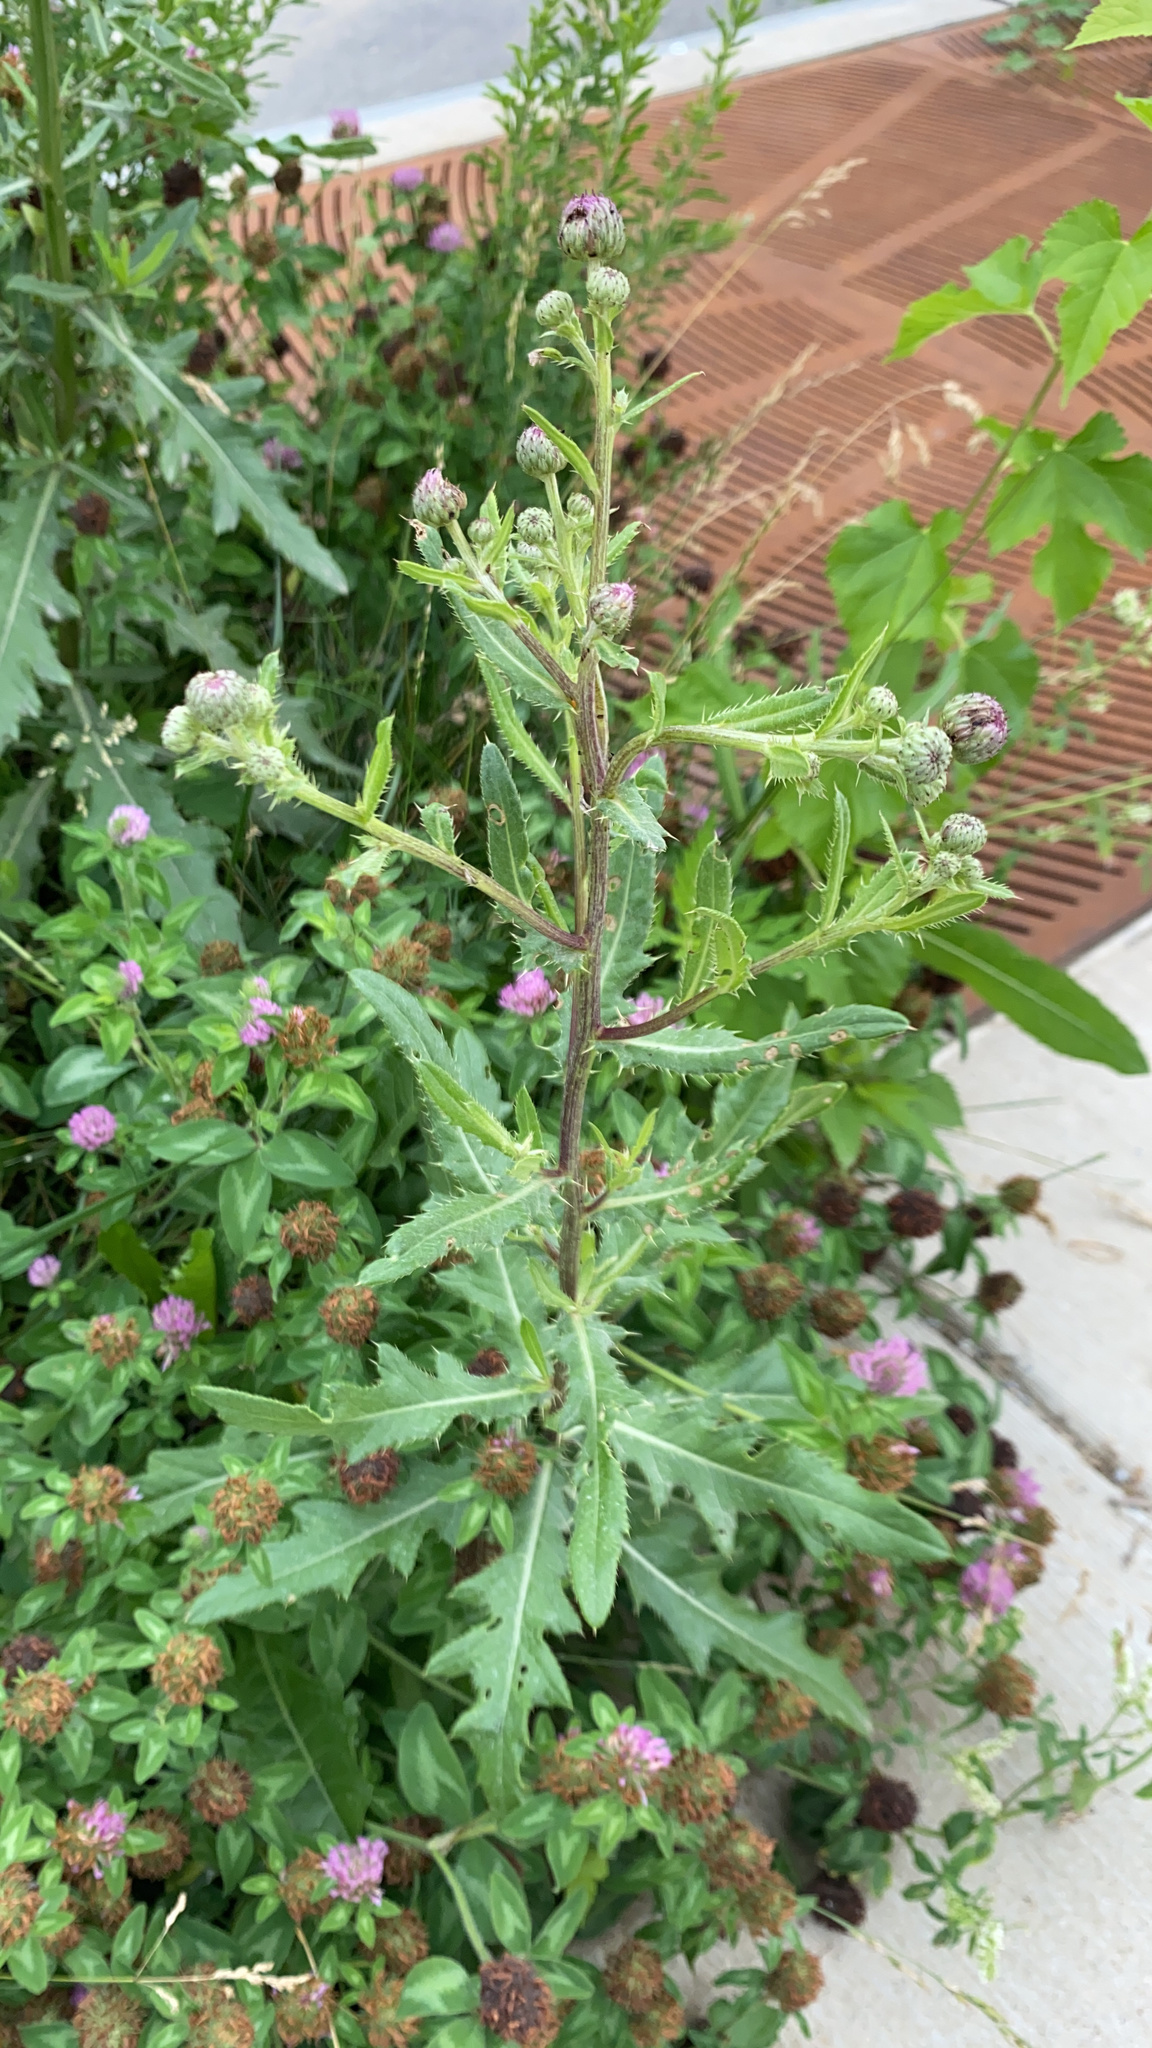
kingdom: Plantae
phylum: Tracheophyta
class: Magnoliopsida
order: Asterales
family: Asteraceae
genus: Cirsium
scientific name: Cirsium arvense
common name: Creeping thistle
